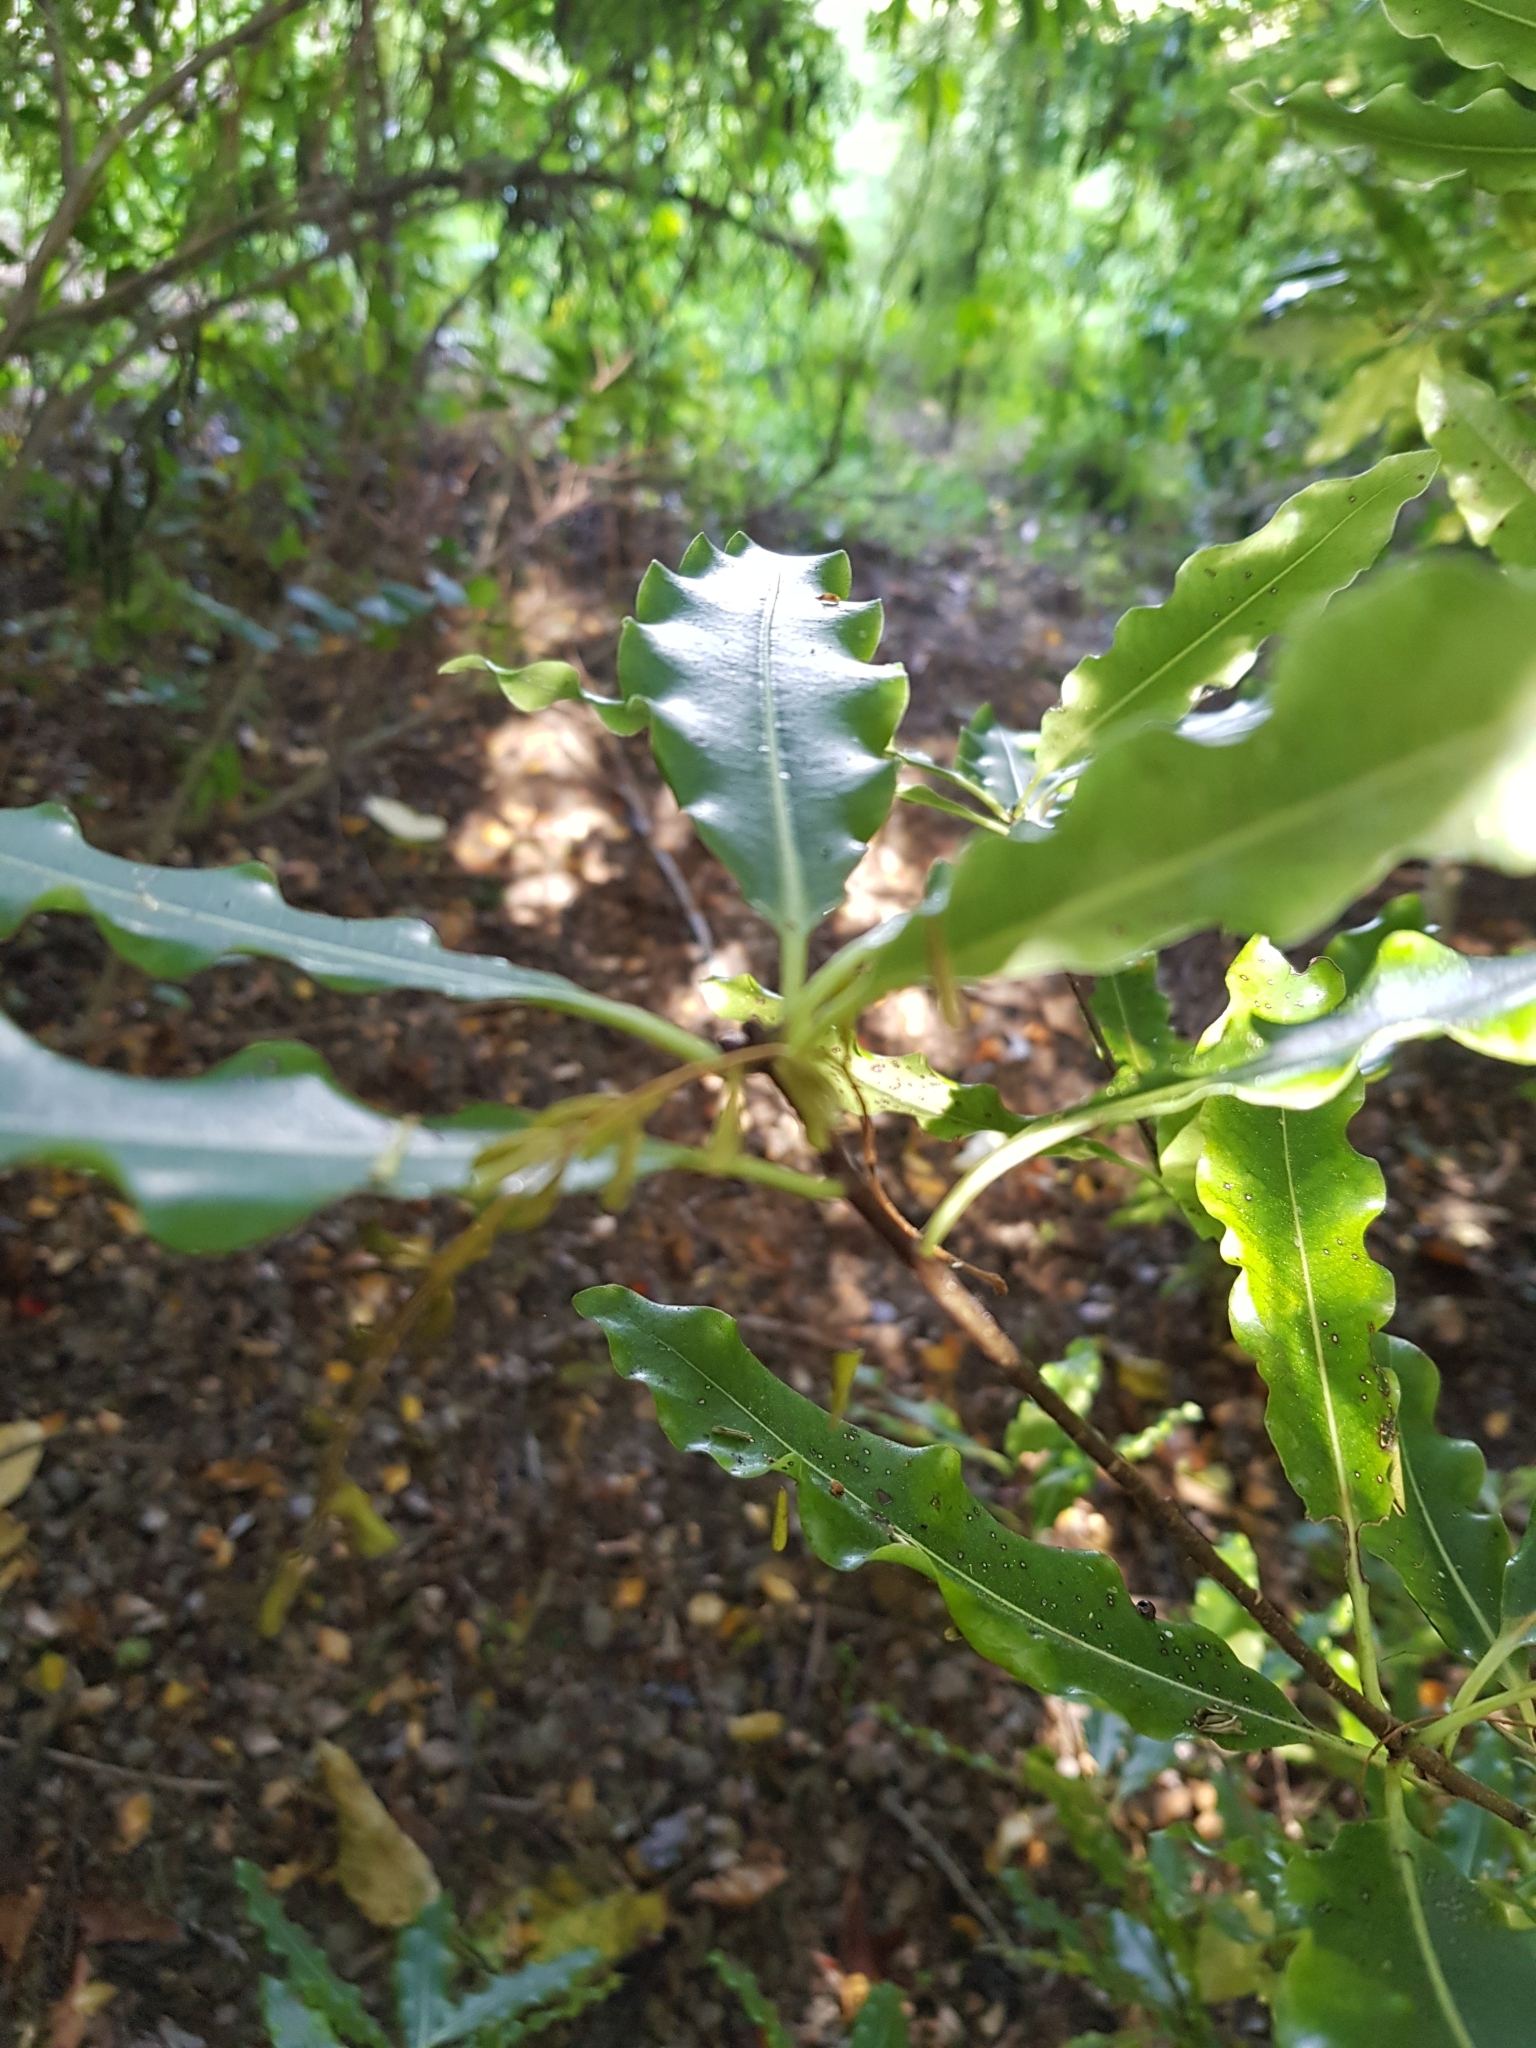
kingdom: Plantae
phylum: Tracheophyta
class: Magnoliopsida
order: Apiales
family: Pittosporaceae
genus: Pittosporum
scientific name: Pittosporum eugenioides
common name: Lemonwood
